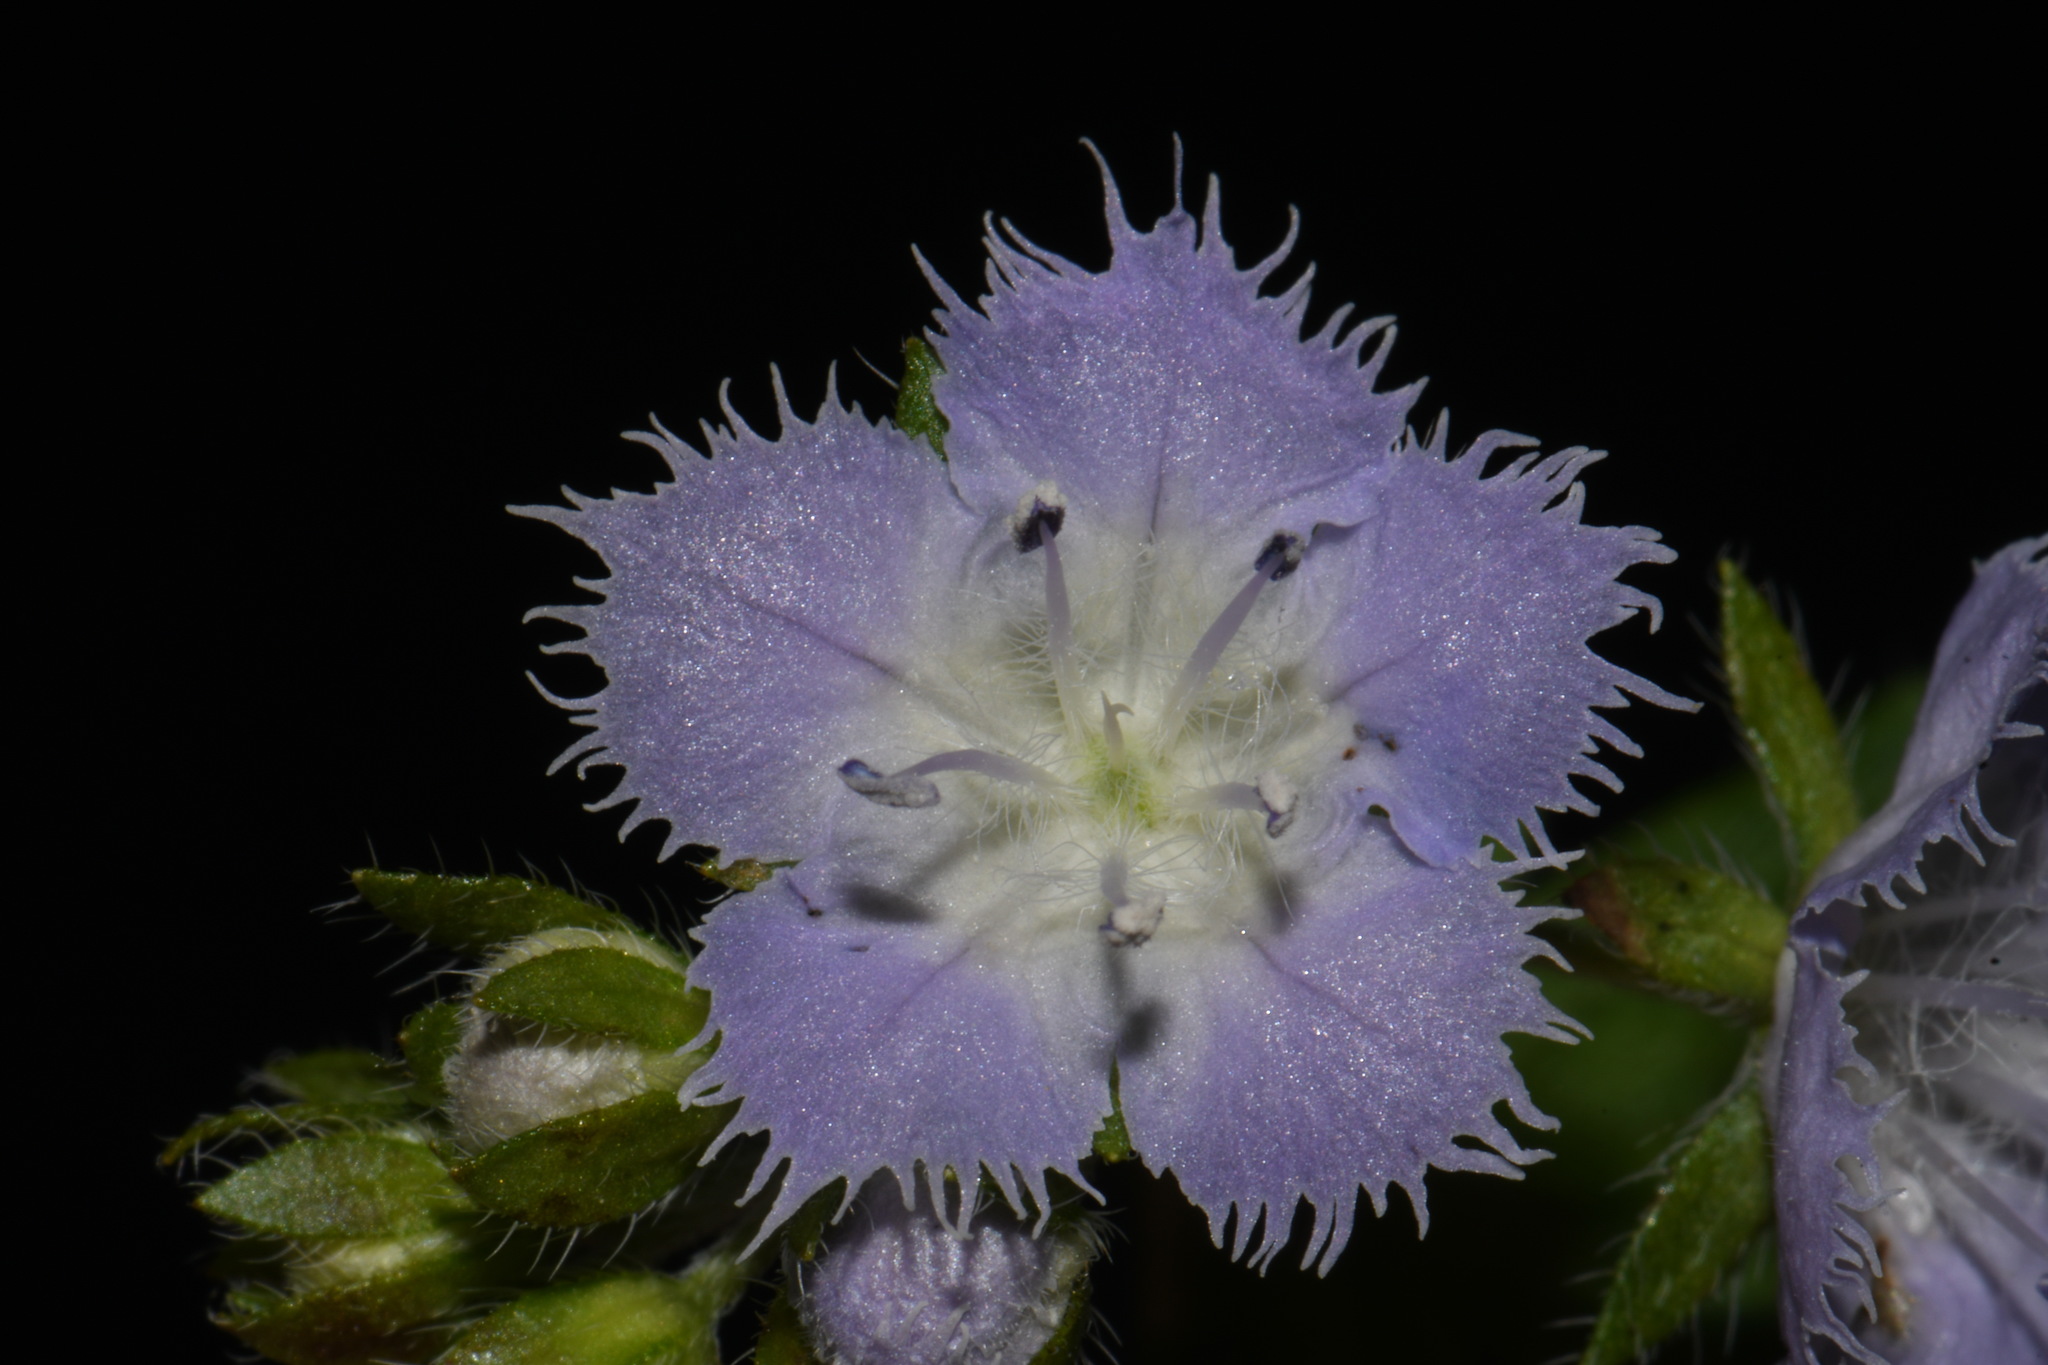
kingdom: Plantae
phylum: Tracheophyta
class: Magnoliopsida
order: Boraginales
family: Hydrophyllaceae
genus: Phacelia
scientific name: Phacelia purshii
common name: Miami-mist
